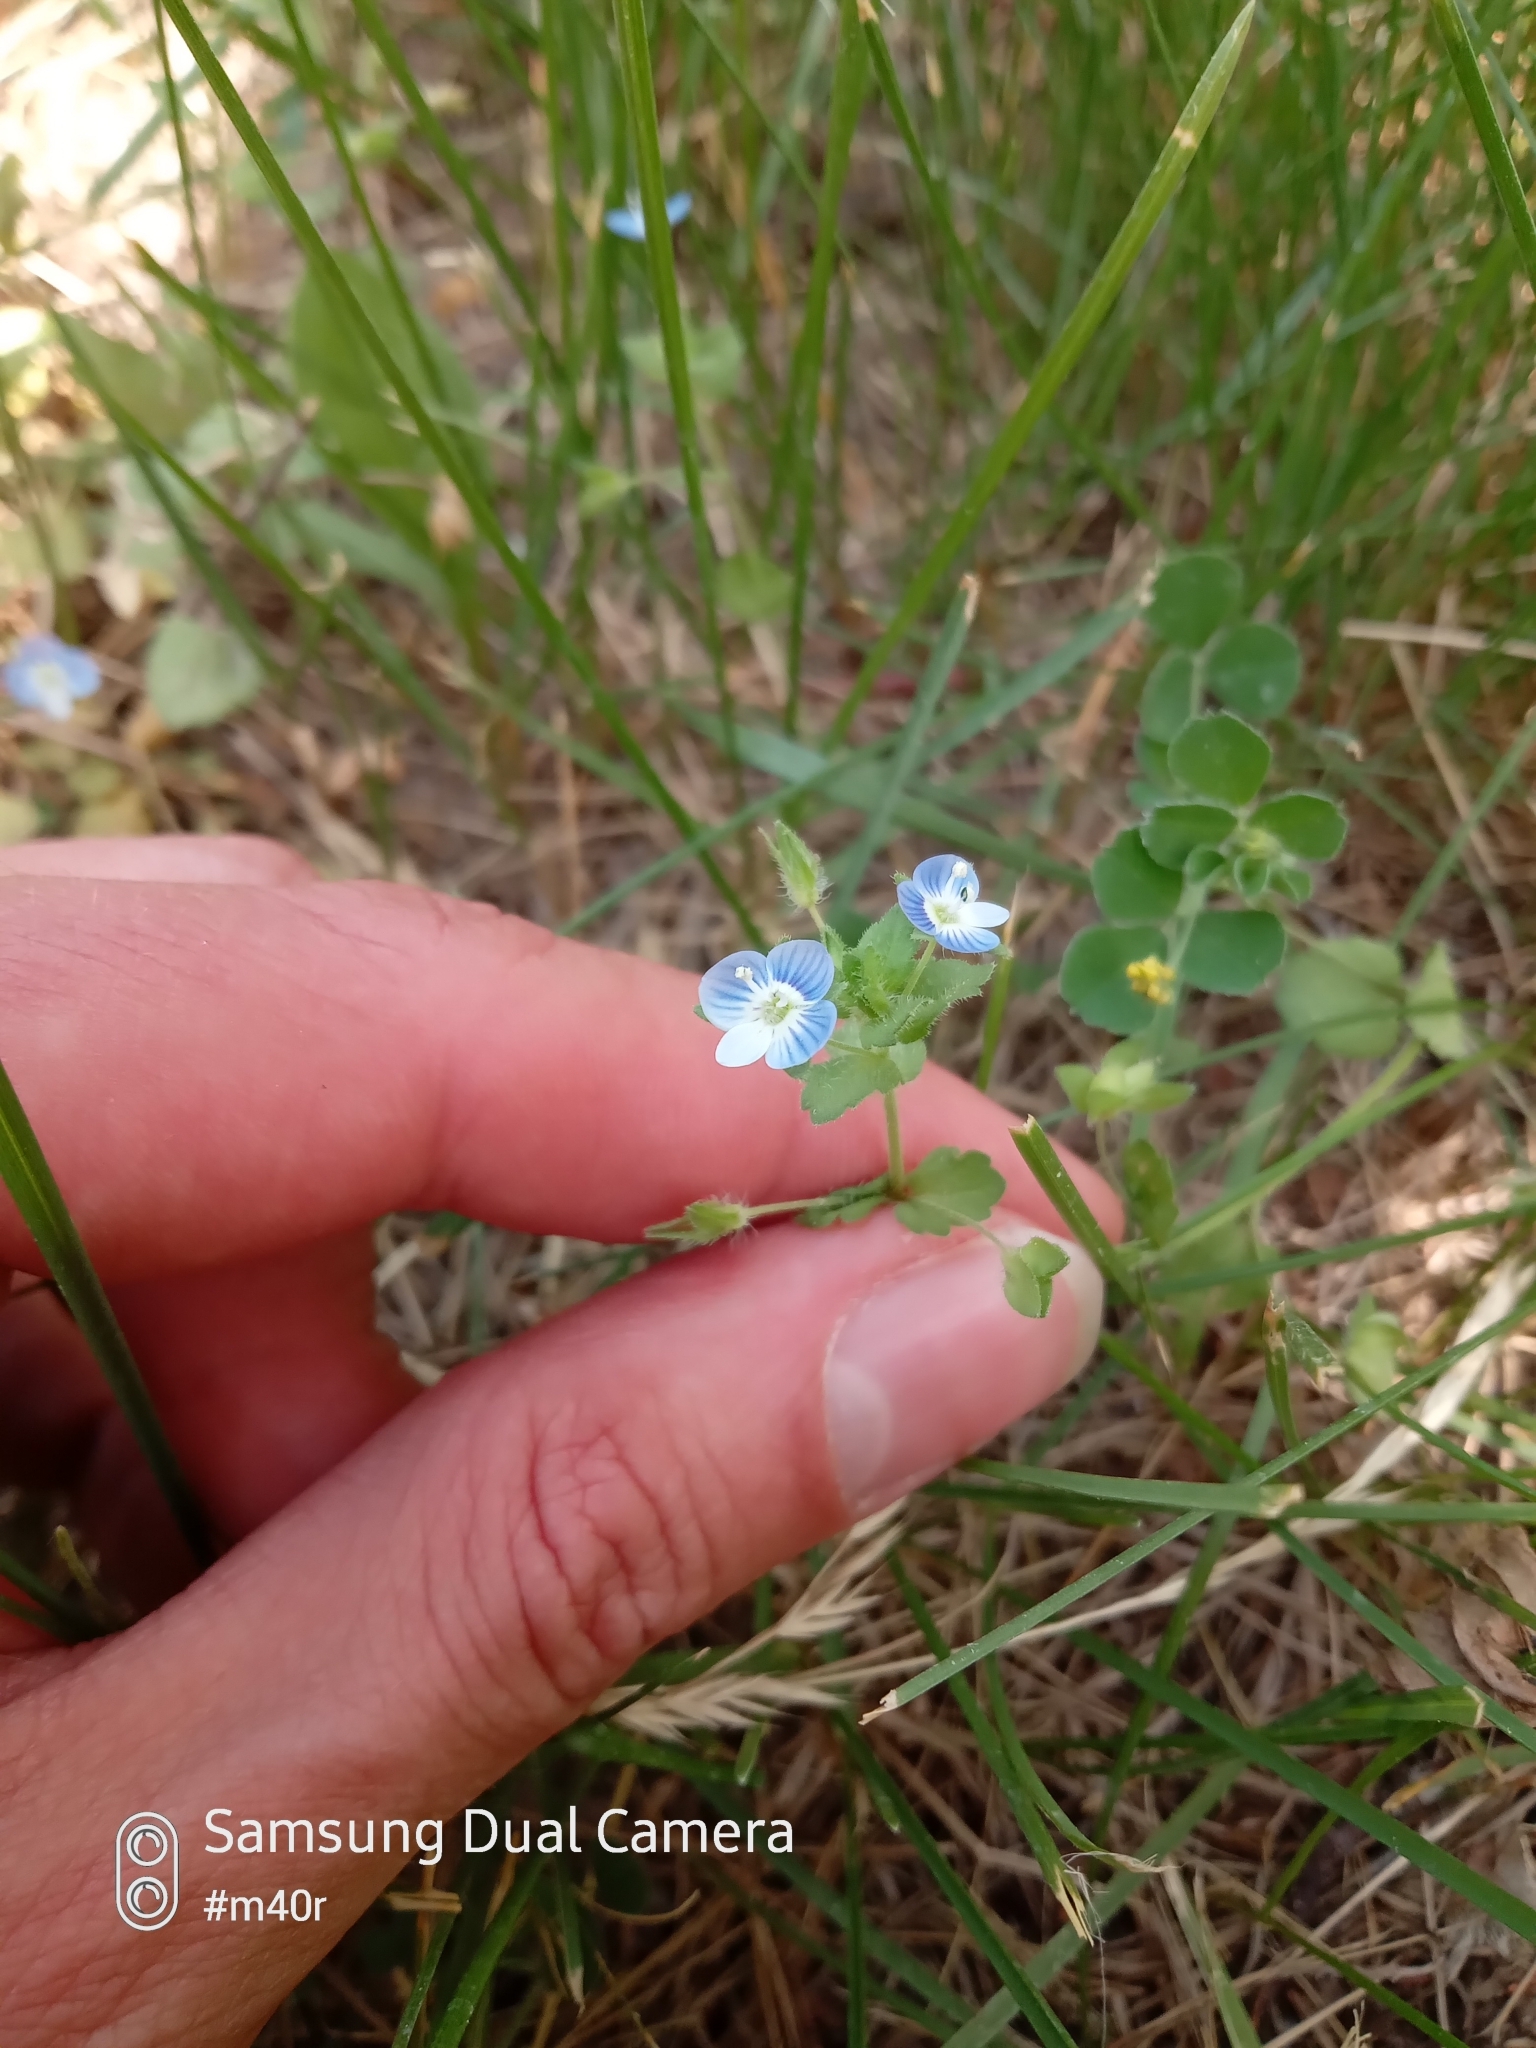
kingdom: Plantae
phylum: Tracheophyta
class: Magnoliopsida
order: Lamiales
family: Plantaginaceae
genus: Veronica
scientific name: Veronica persica
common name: Common field-speedwell
